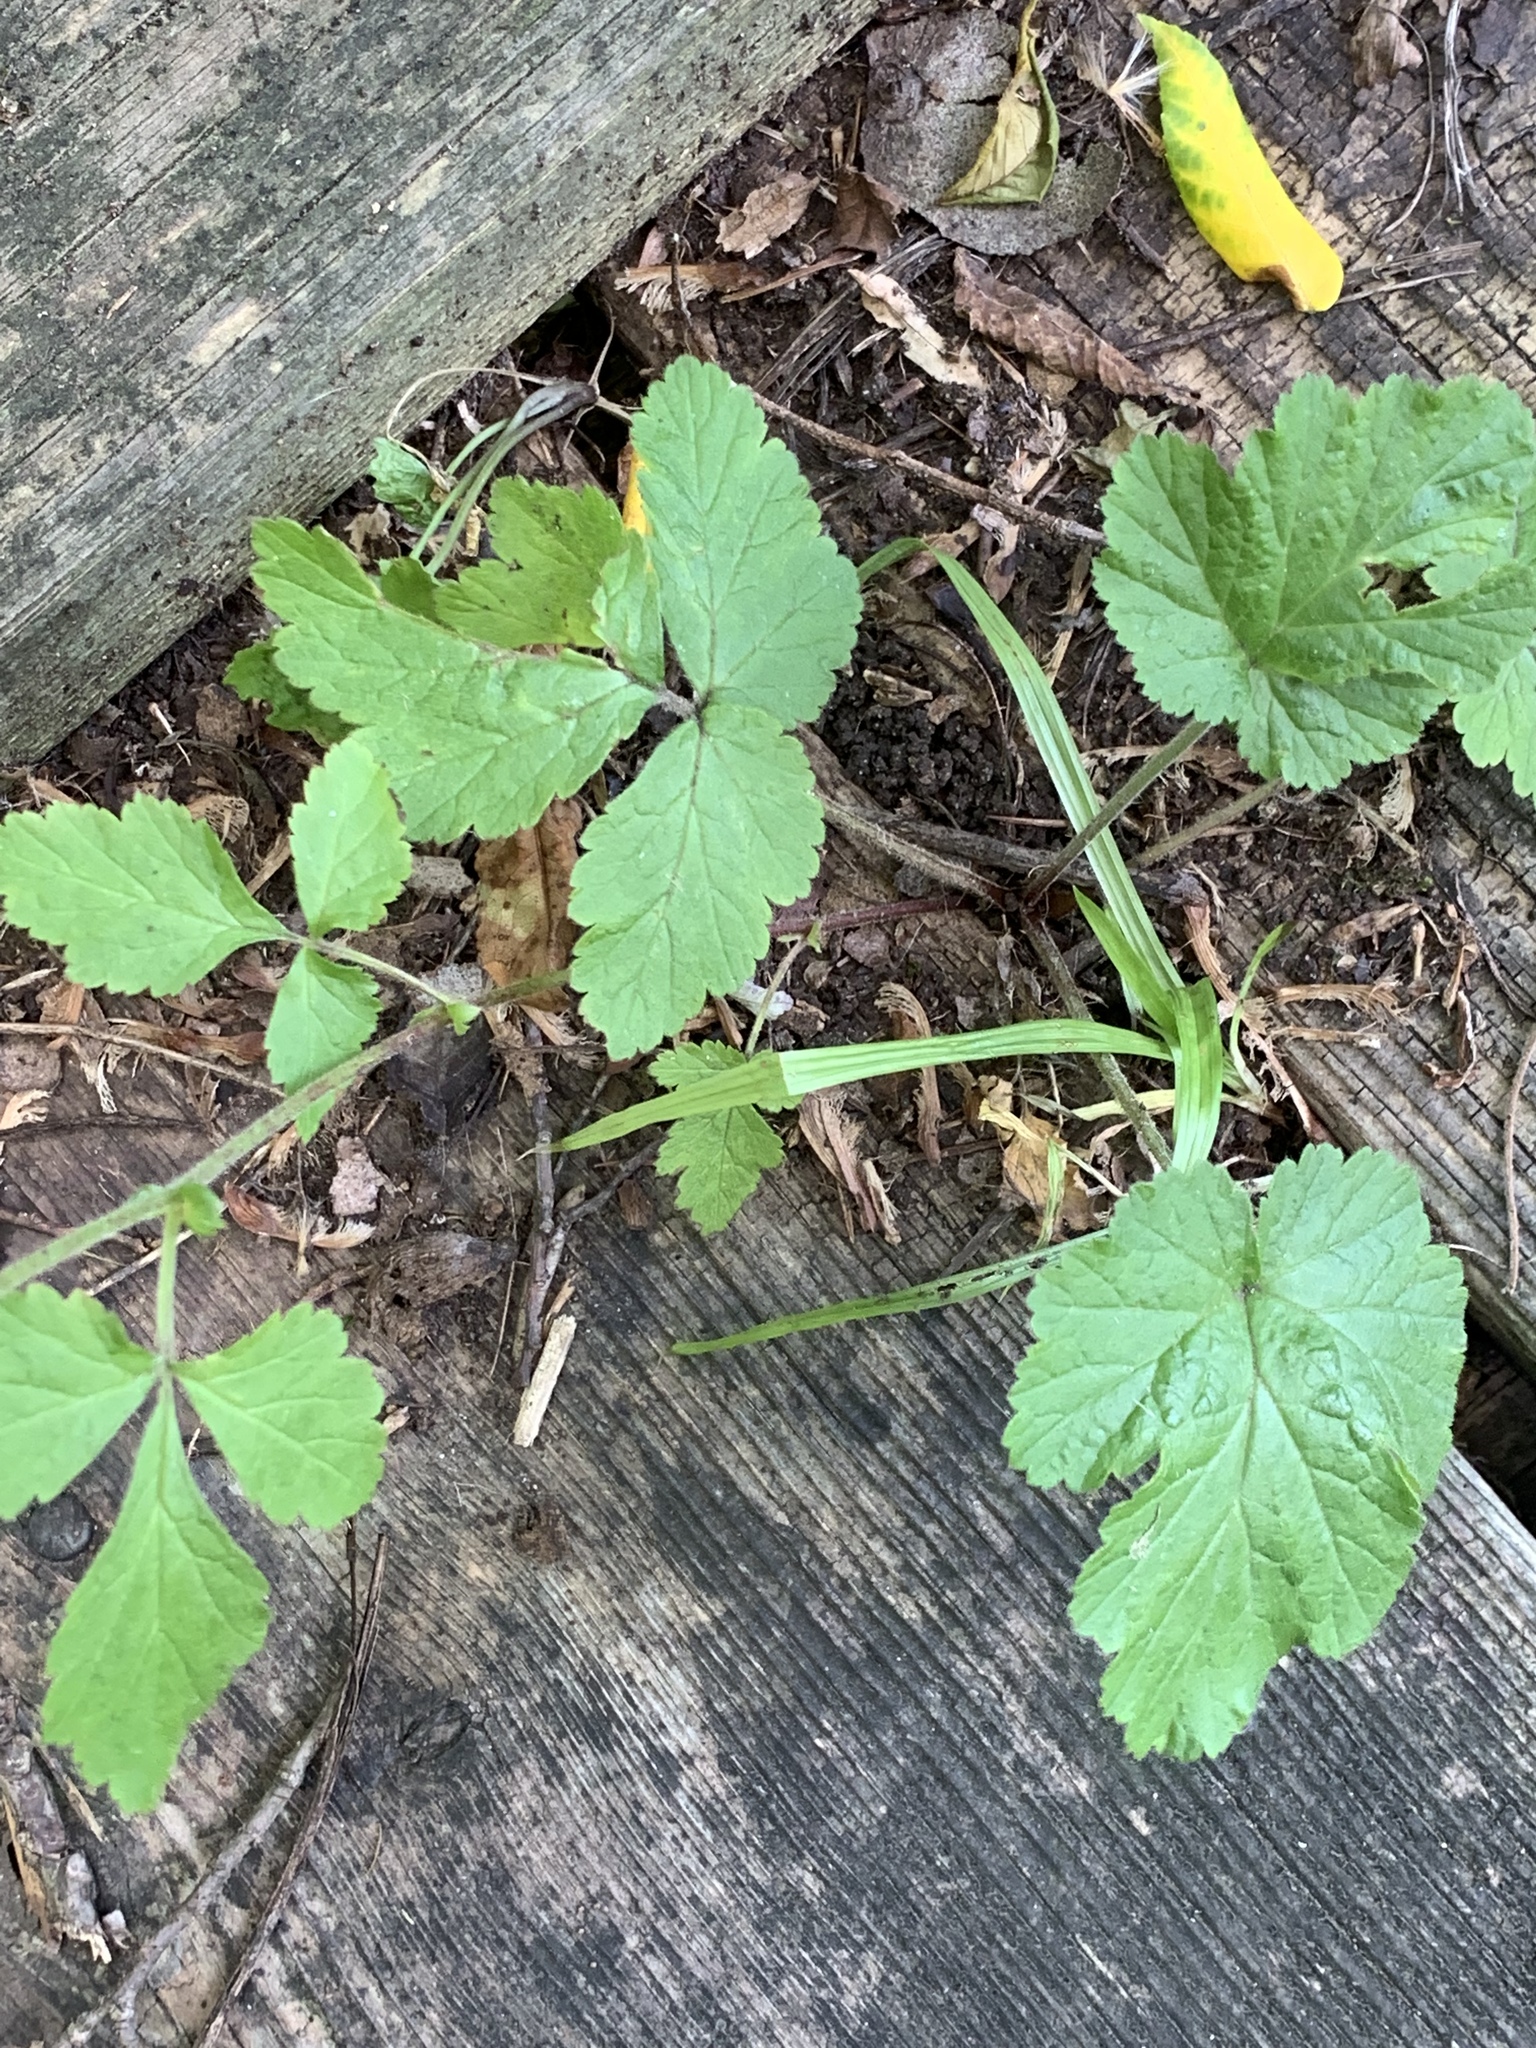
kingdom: Plantae
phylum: Tracheophyta
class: Magnoliopsida
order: Rosales
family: Rosaceae
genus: Geum
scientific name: Geum canadense
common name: White avens
